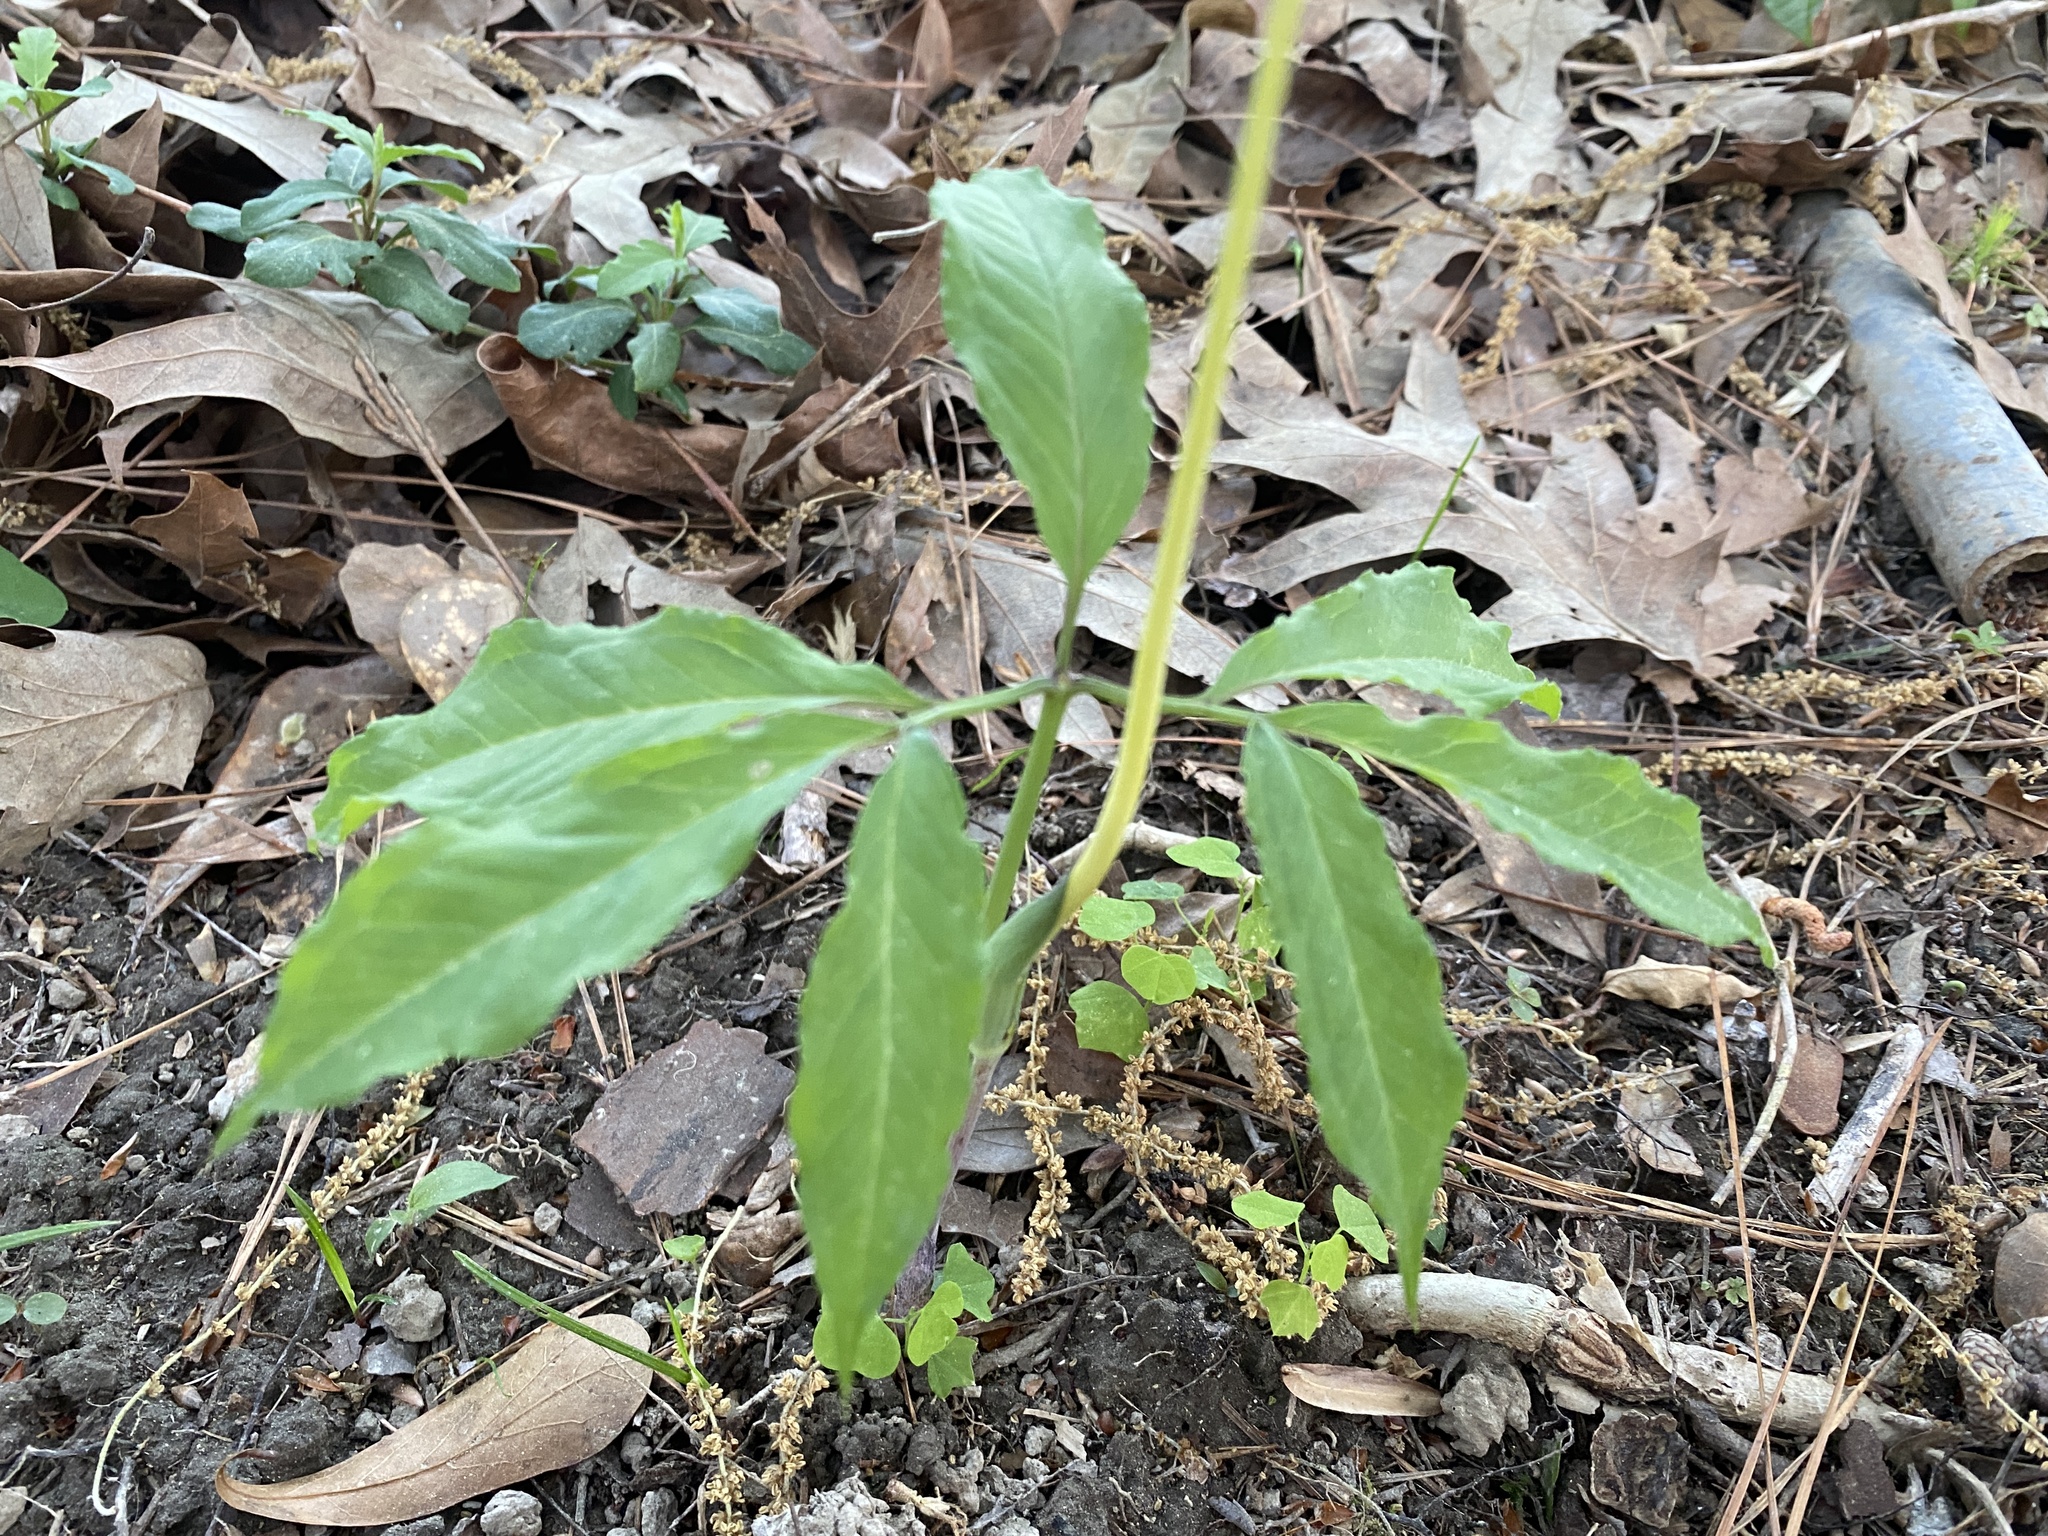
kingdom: Plantae
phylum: Tracheophyta
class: Liliopsida
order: Alismatales
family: Araceae
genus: Arisaema
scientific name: Arisaema dracontium
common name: Dragon-arum
